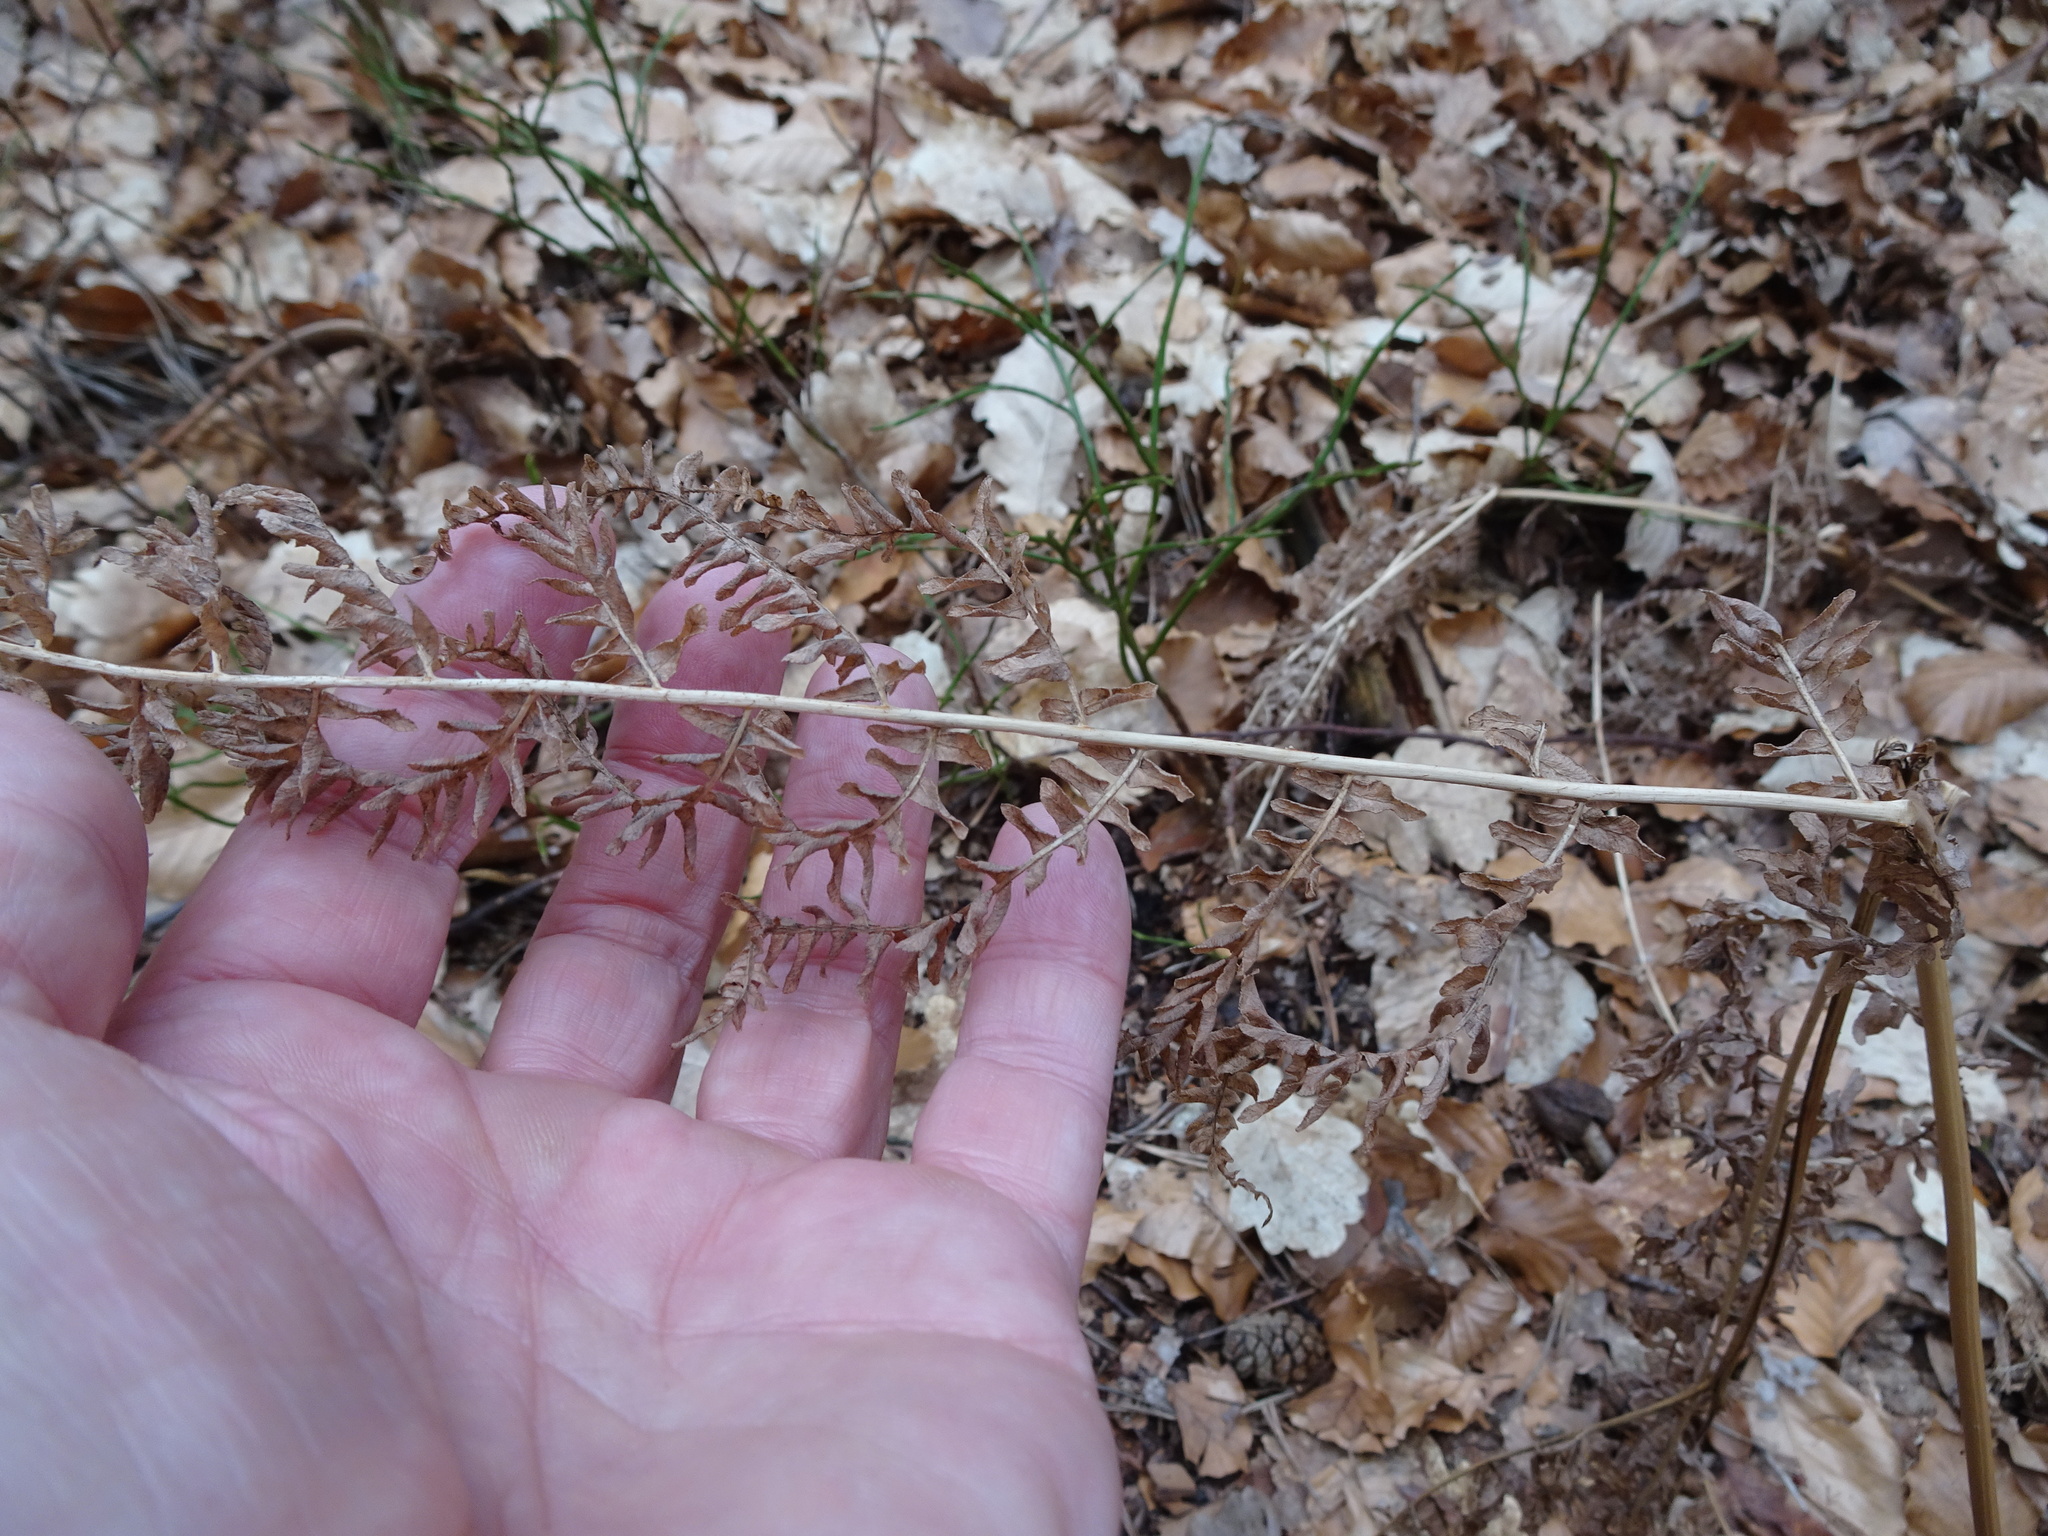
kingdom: Plantae
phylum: Tracheophyta
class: Polypodiopsida
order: Polypodiales
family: Dennstaedtiaceae
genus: Pteridium
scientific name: Pteridium aquilinum
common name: Bracken
